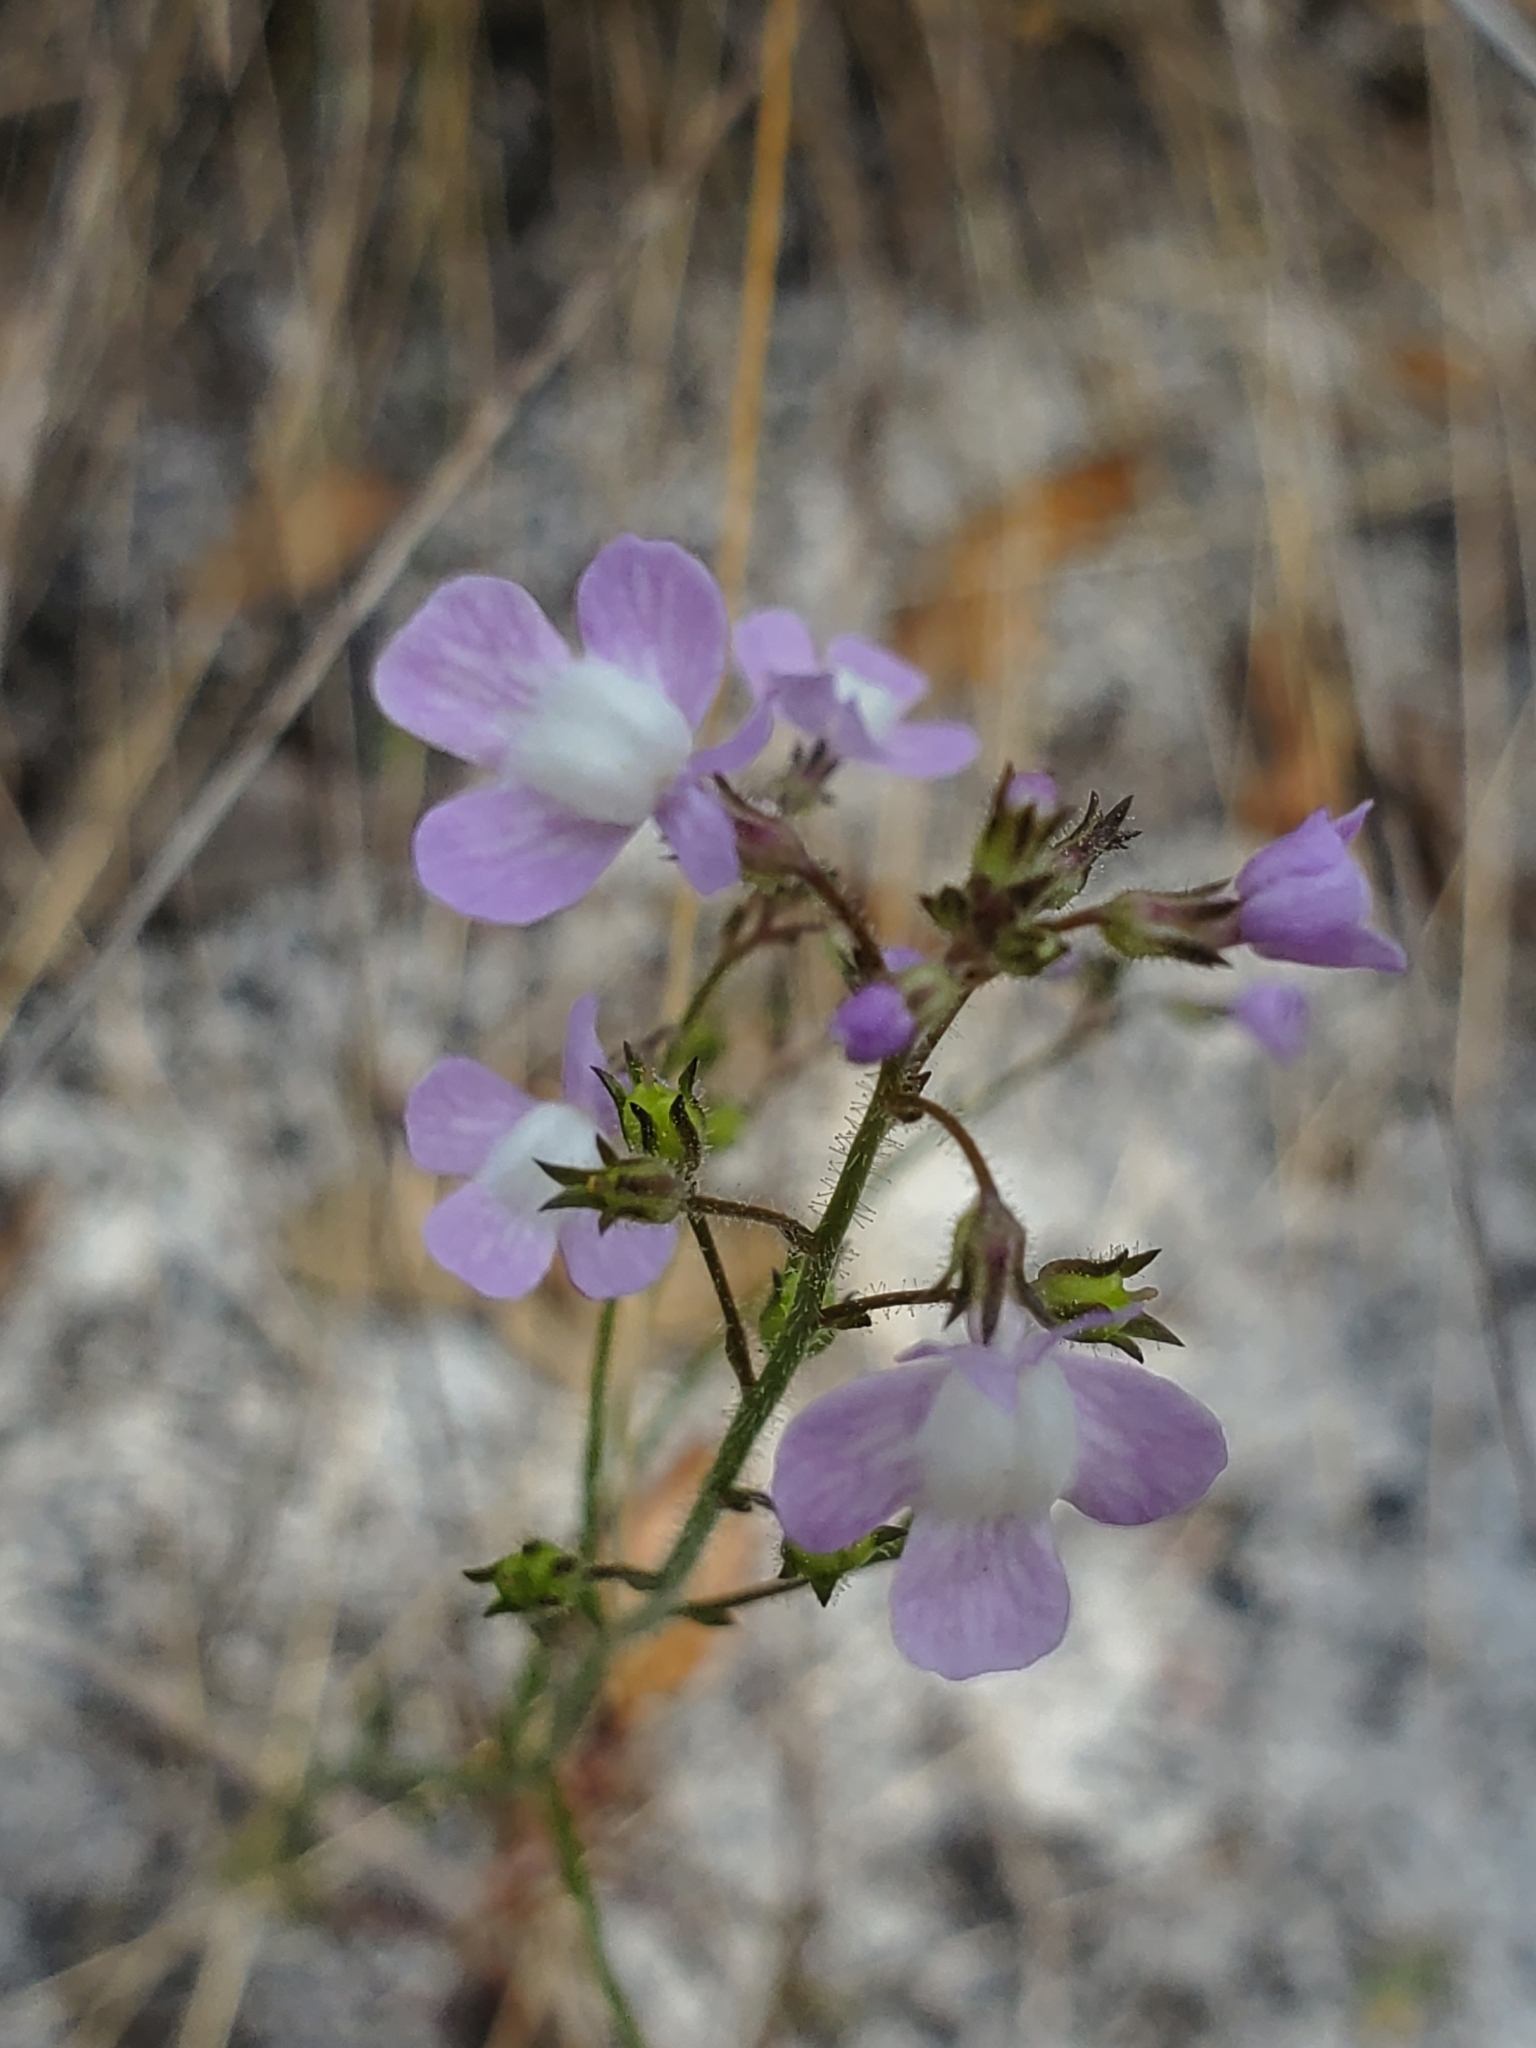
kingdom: Plantae
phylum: Tracheophyta
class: Magnoliopsida
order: Lamiales
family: Plantaginaceae
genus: Nuttallanthus
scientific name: Nuttallanthus canadensis
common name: Blue toadflax
